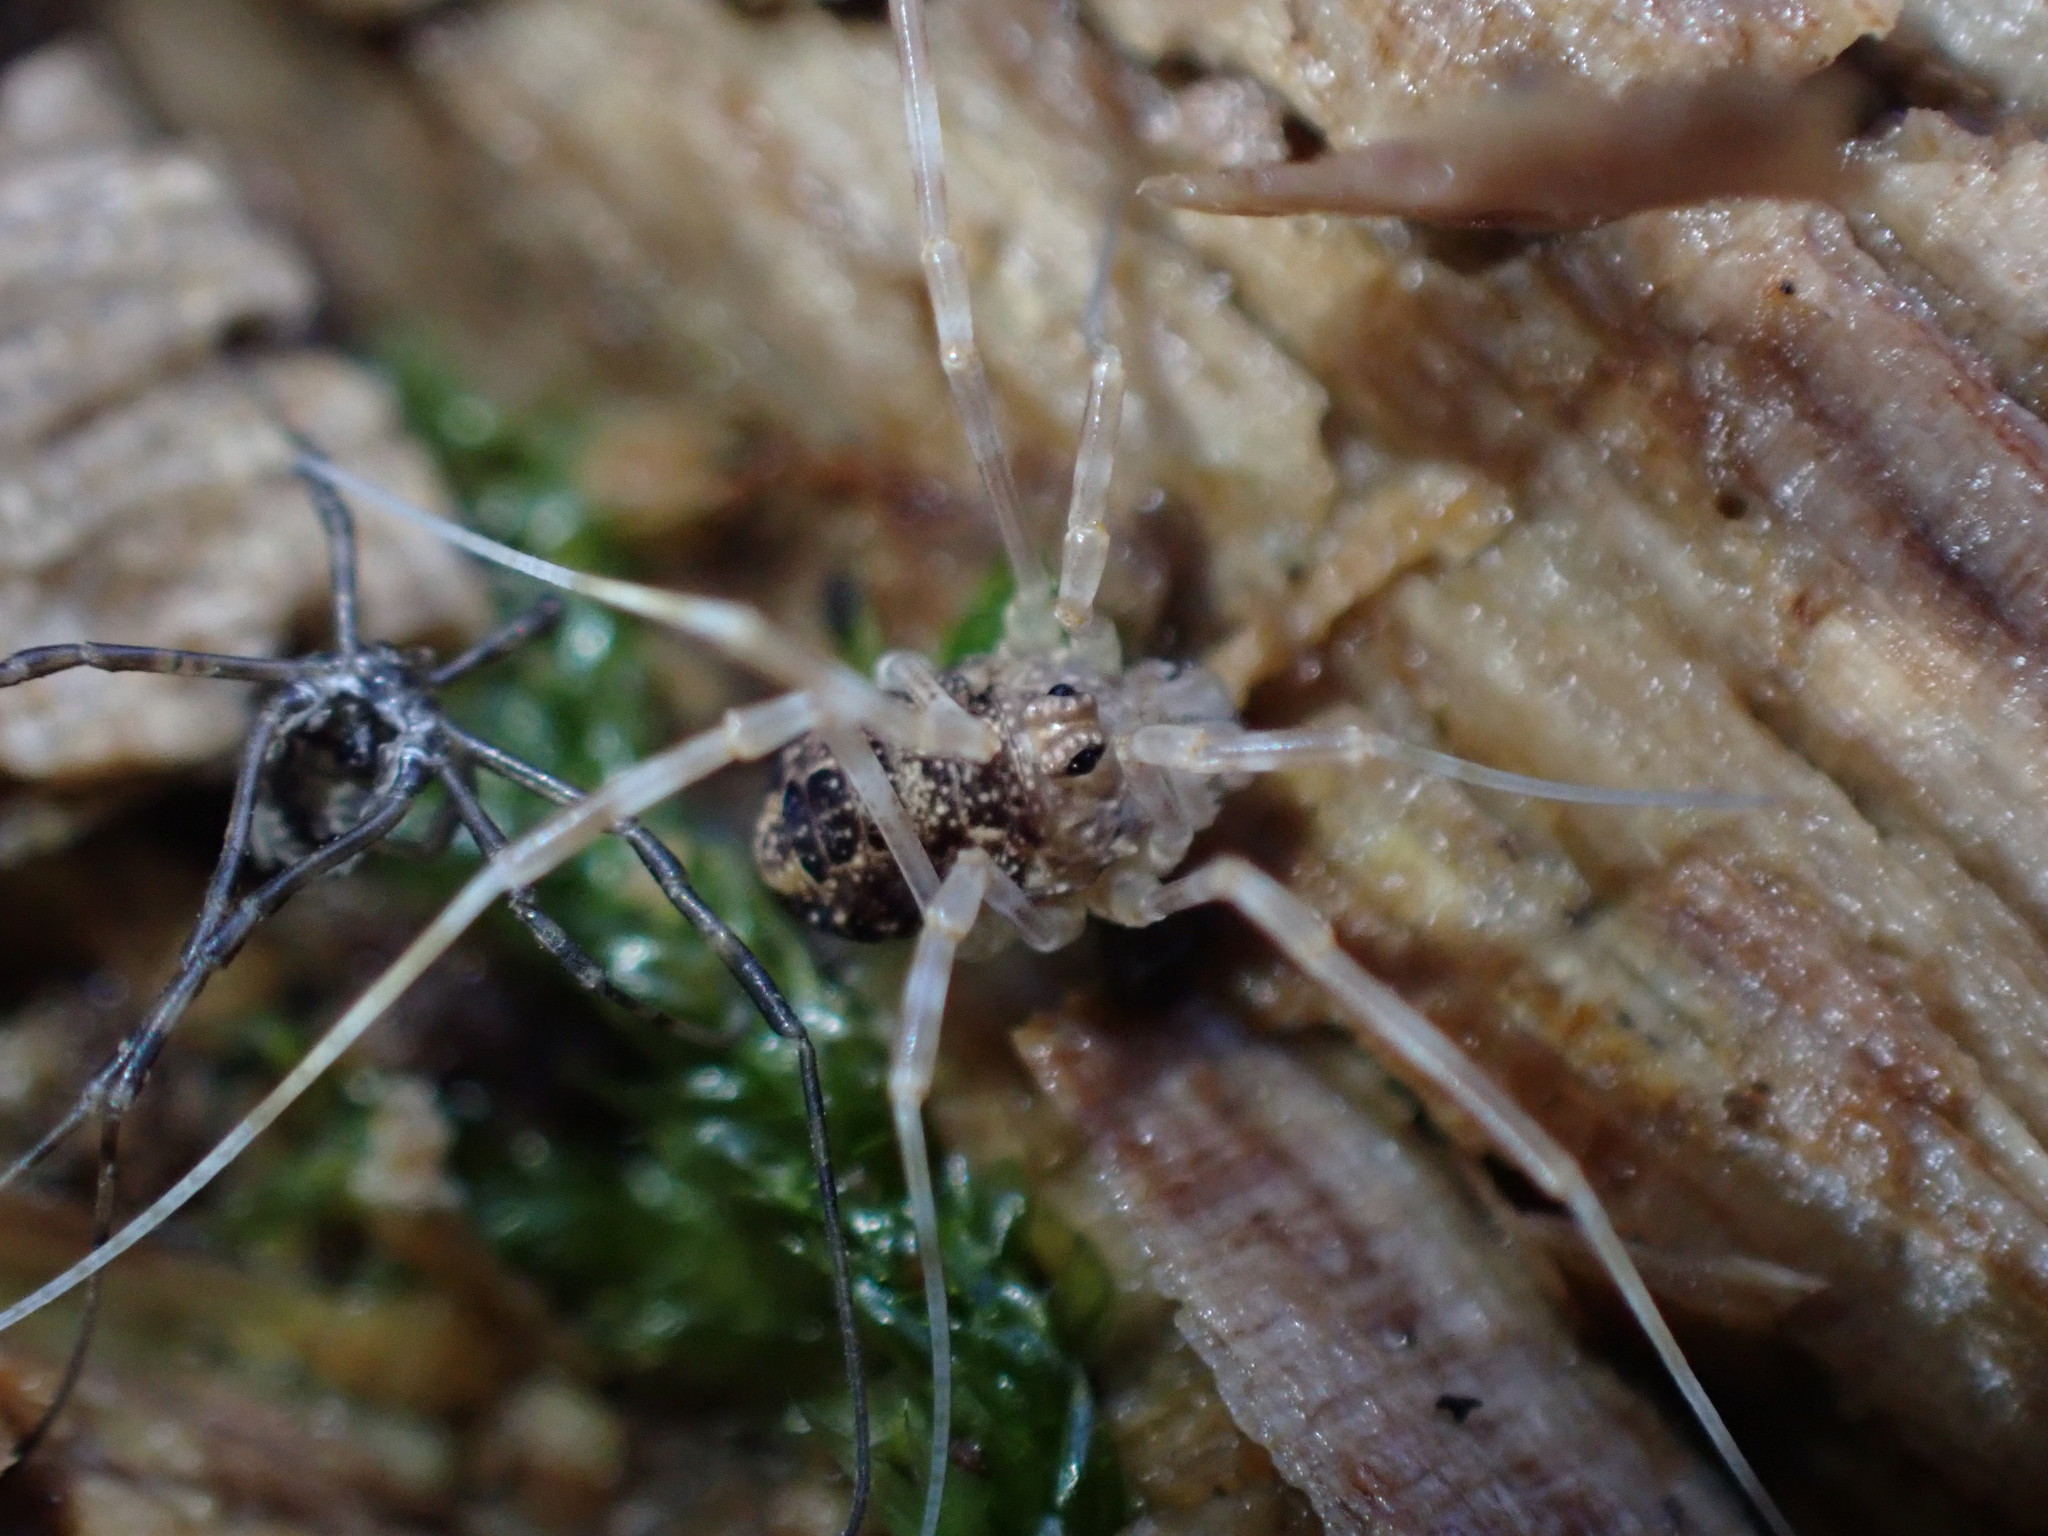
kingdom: Animalia
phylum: Arthropoda
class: Arachnida
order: Opiliones
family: Phalangiidae
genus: Rilaena
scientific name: Rilaena triangularis
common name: Spring harvestman
